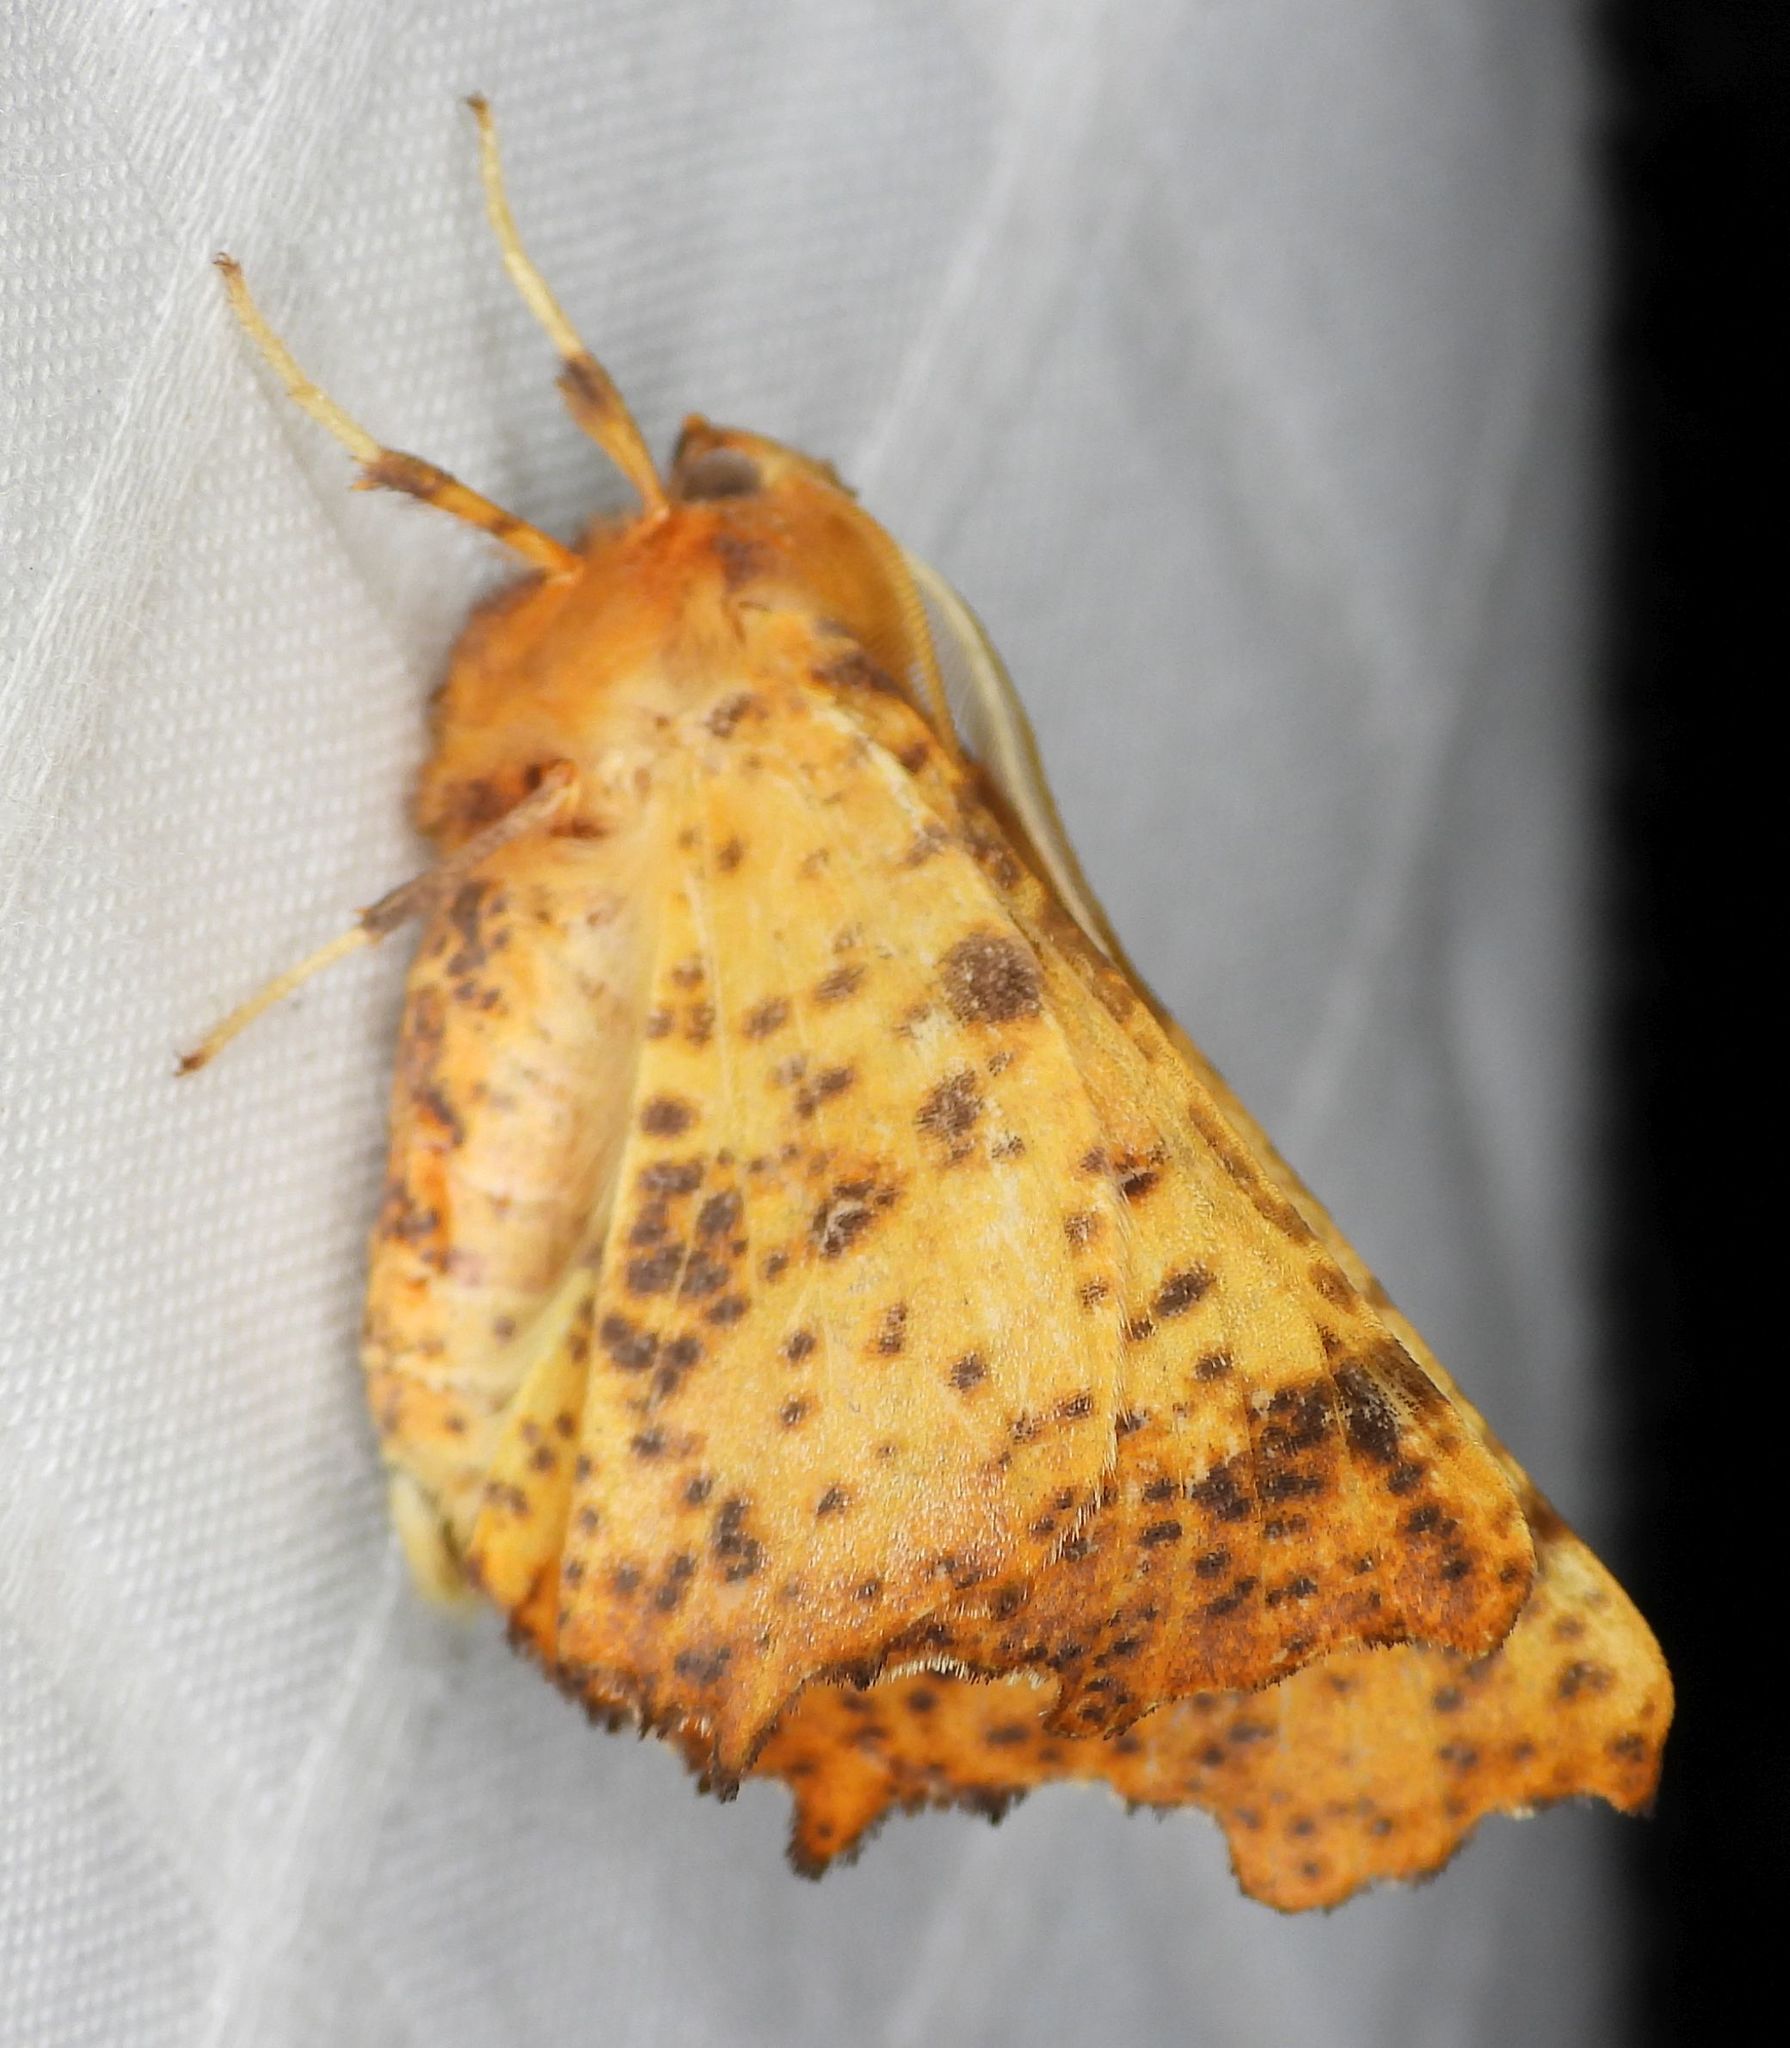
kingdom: Animalia
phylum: Arthropoda
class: Insecta
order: Lepidoptera
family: Geometridae
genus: Ennomos
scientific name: Ennomos magnaria
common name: Maple spanworm
